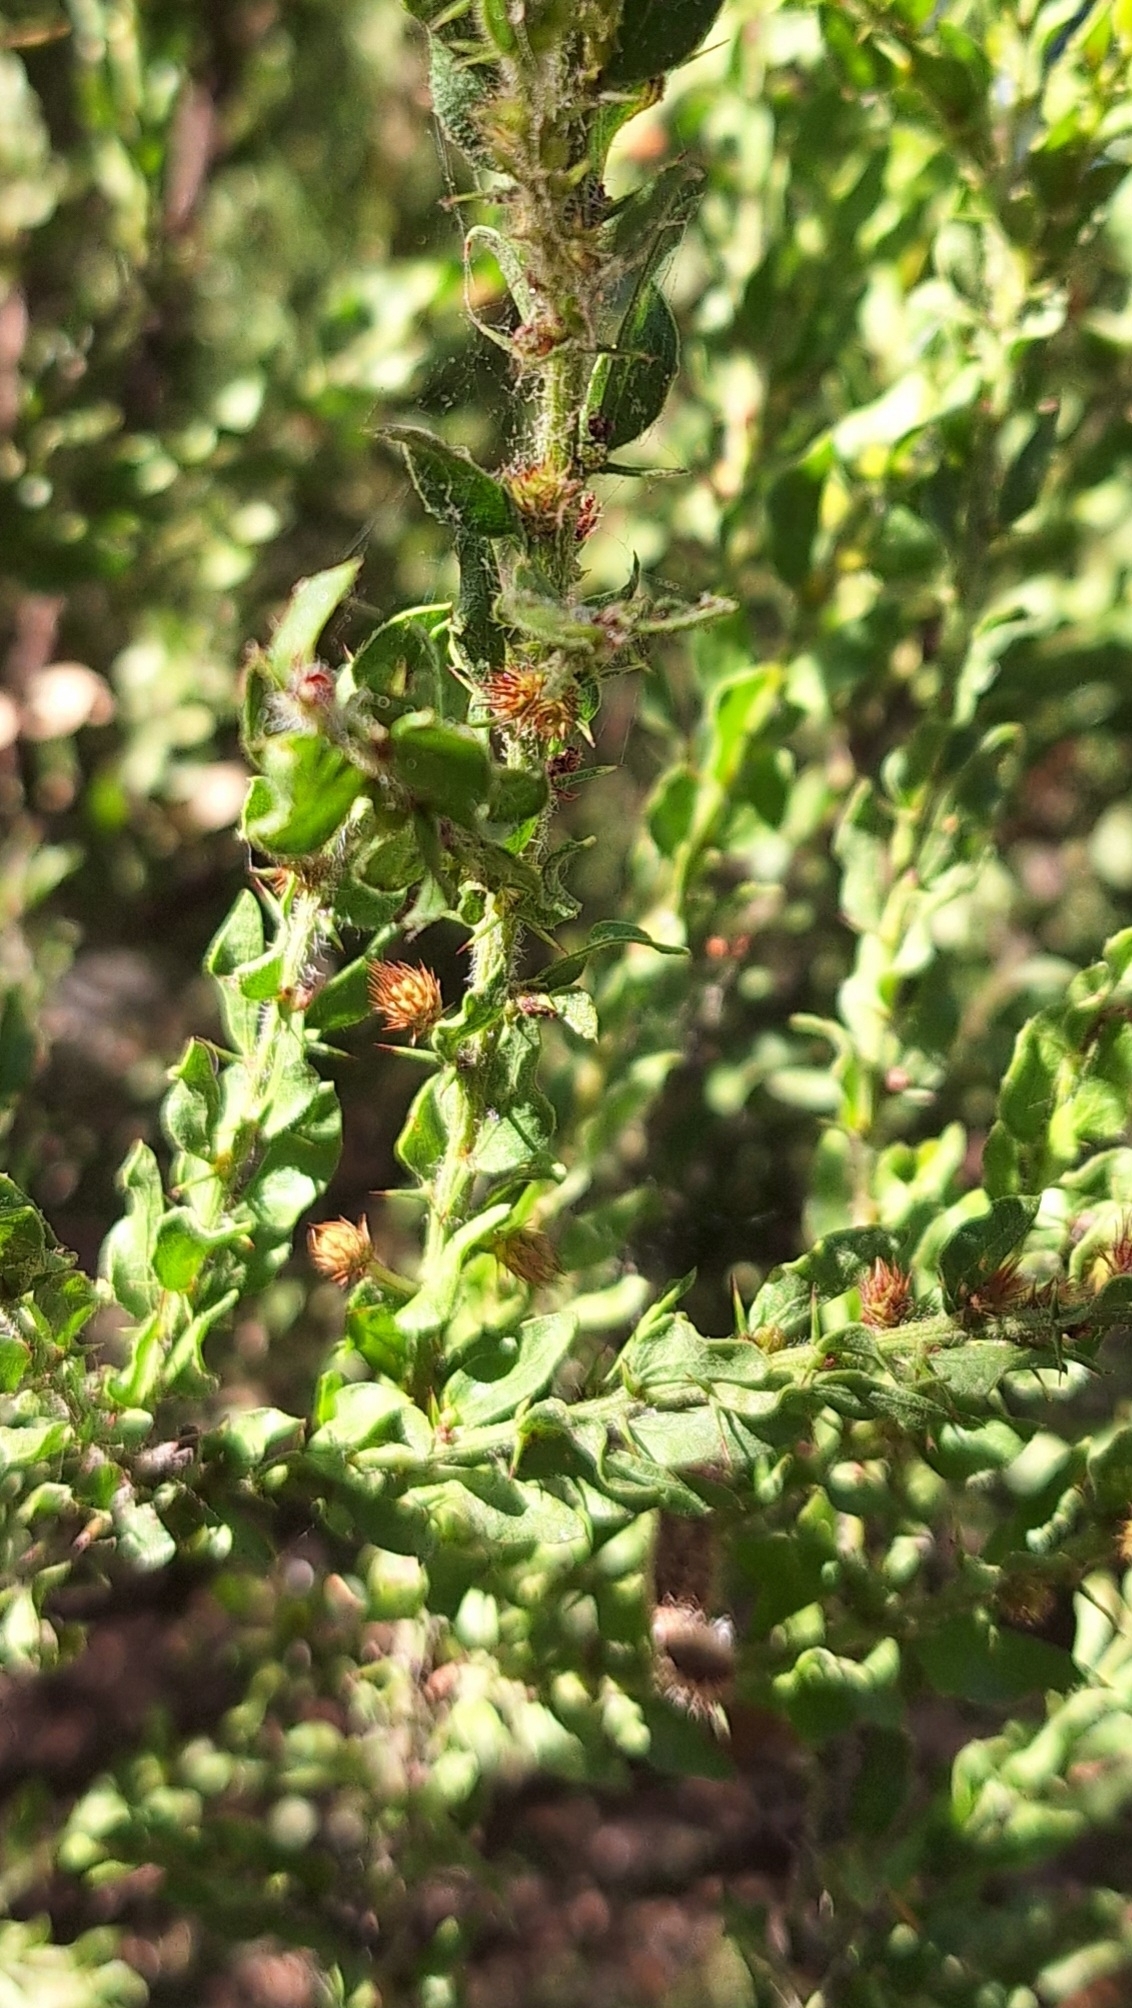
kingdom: Plantae
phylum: Tracheophyta
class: Magnoliopsida
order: Fabales
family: Fabaceae
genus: Acacia
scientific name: Acacia paradoxa
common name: Paradox acacia
